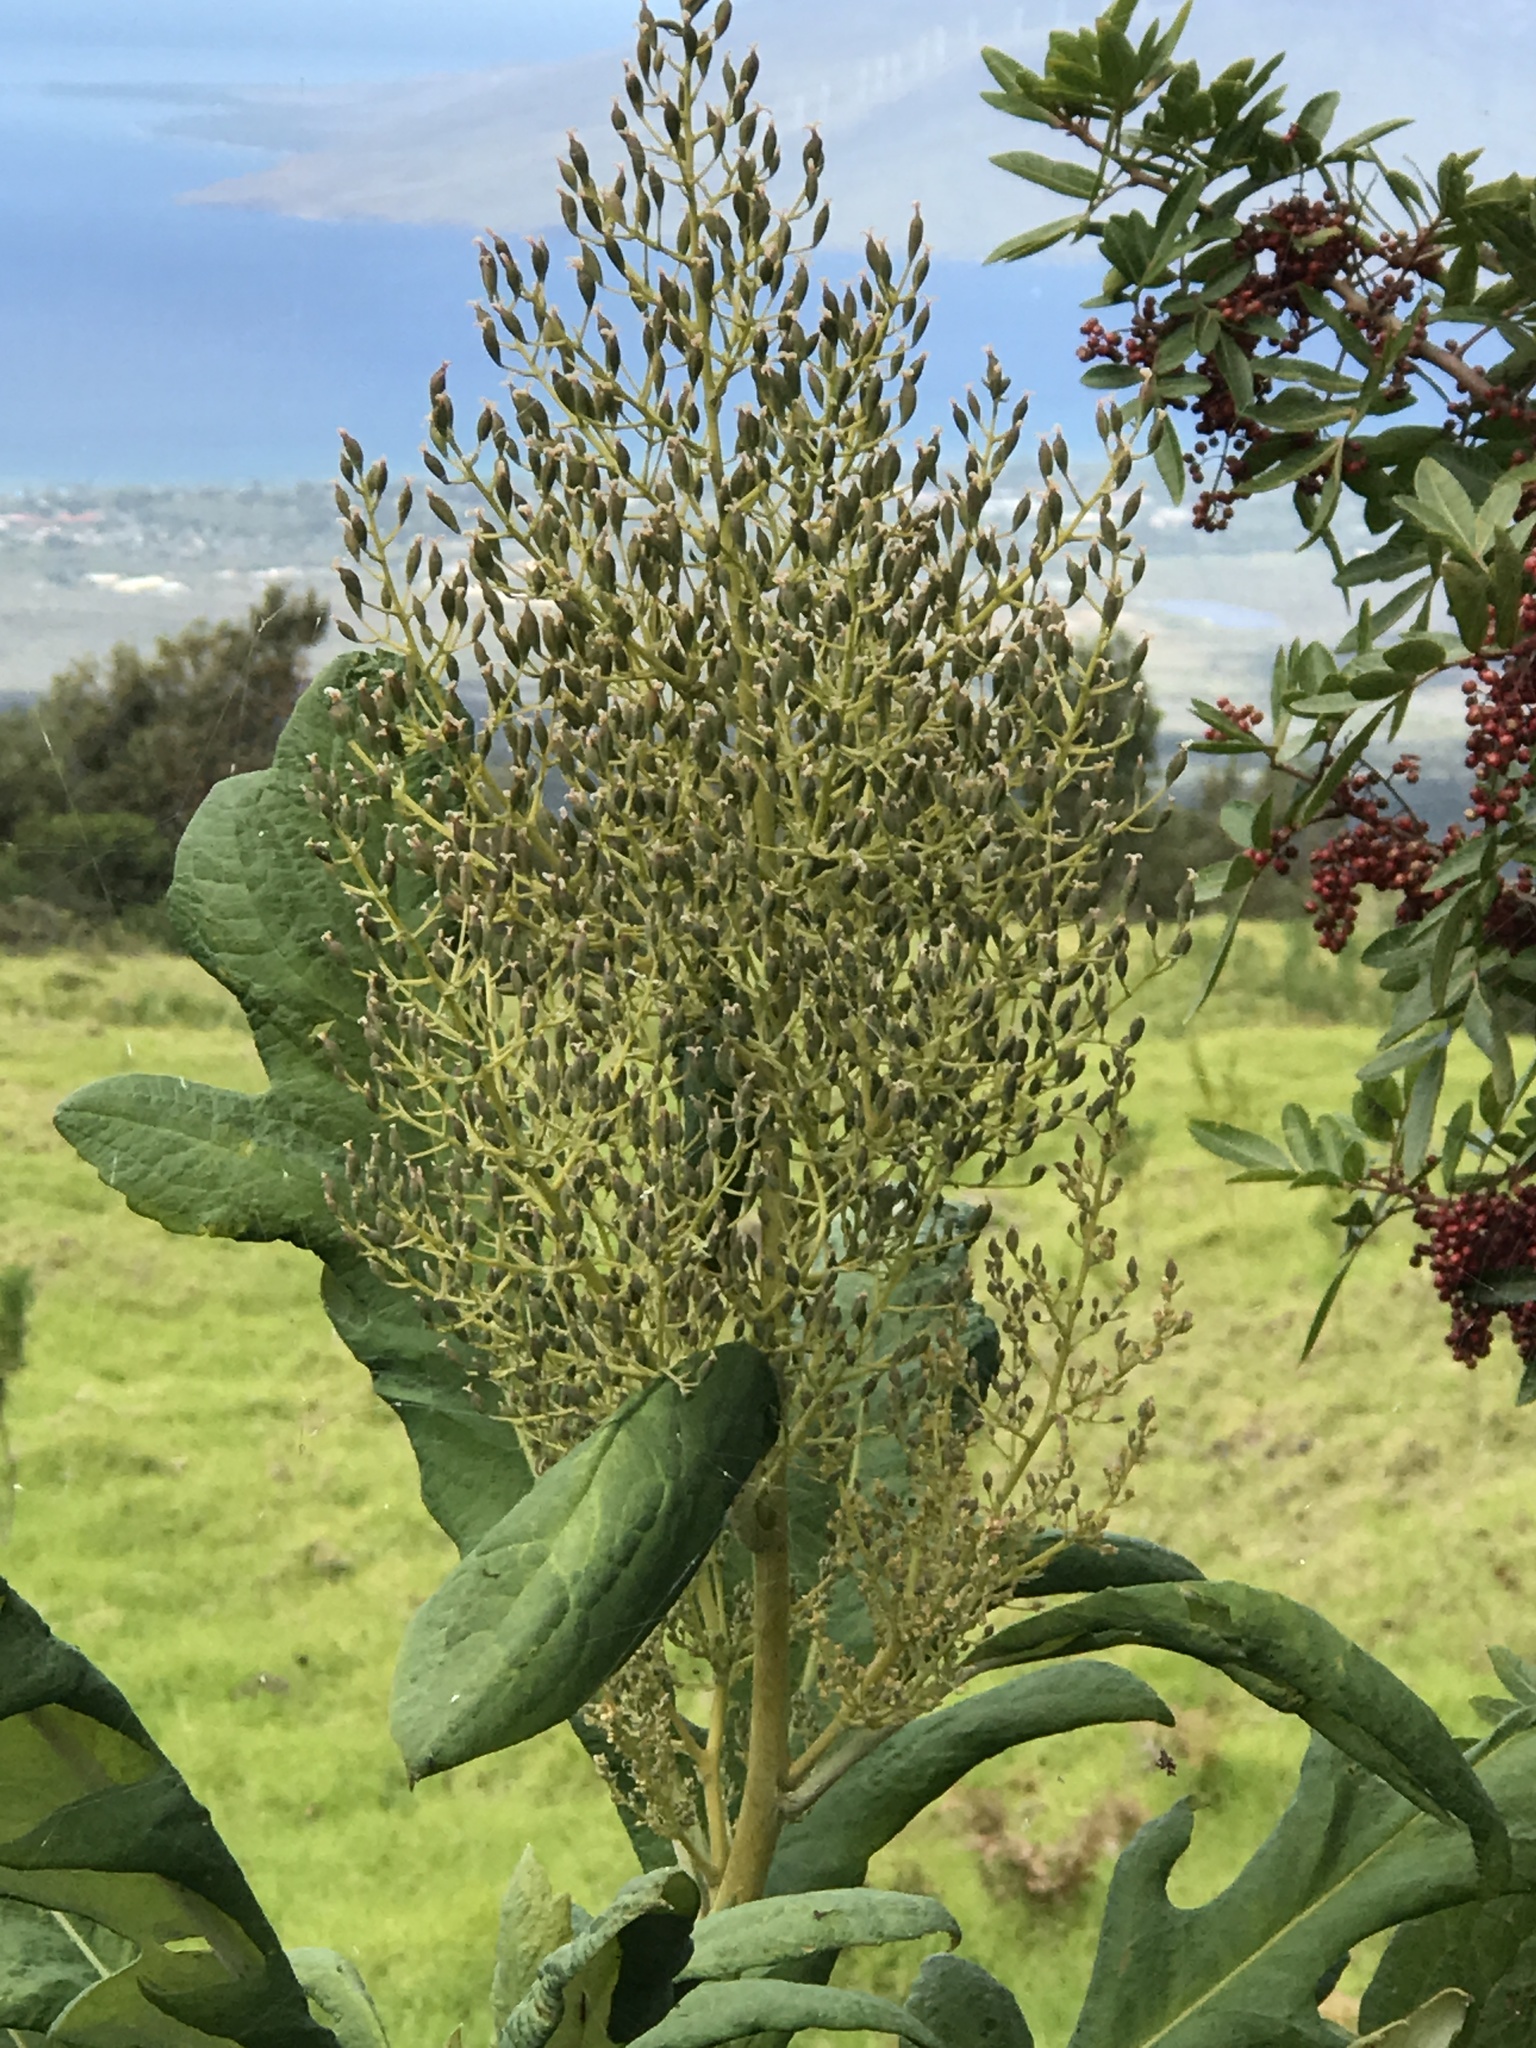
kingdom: Plantae
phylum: Tracheophyta
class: Magnoliopsida
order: Ranunculales
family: Papaveraceae
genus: Bocconia
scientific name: Bocconia frutescens
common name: Tree poppy
